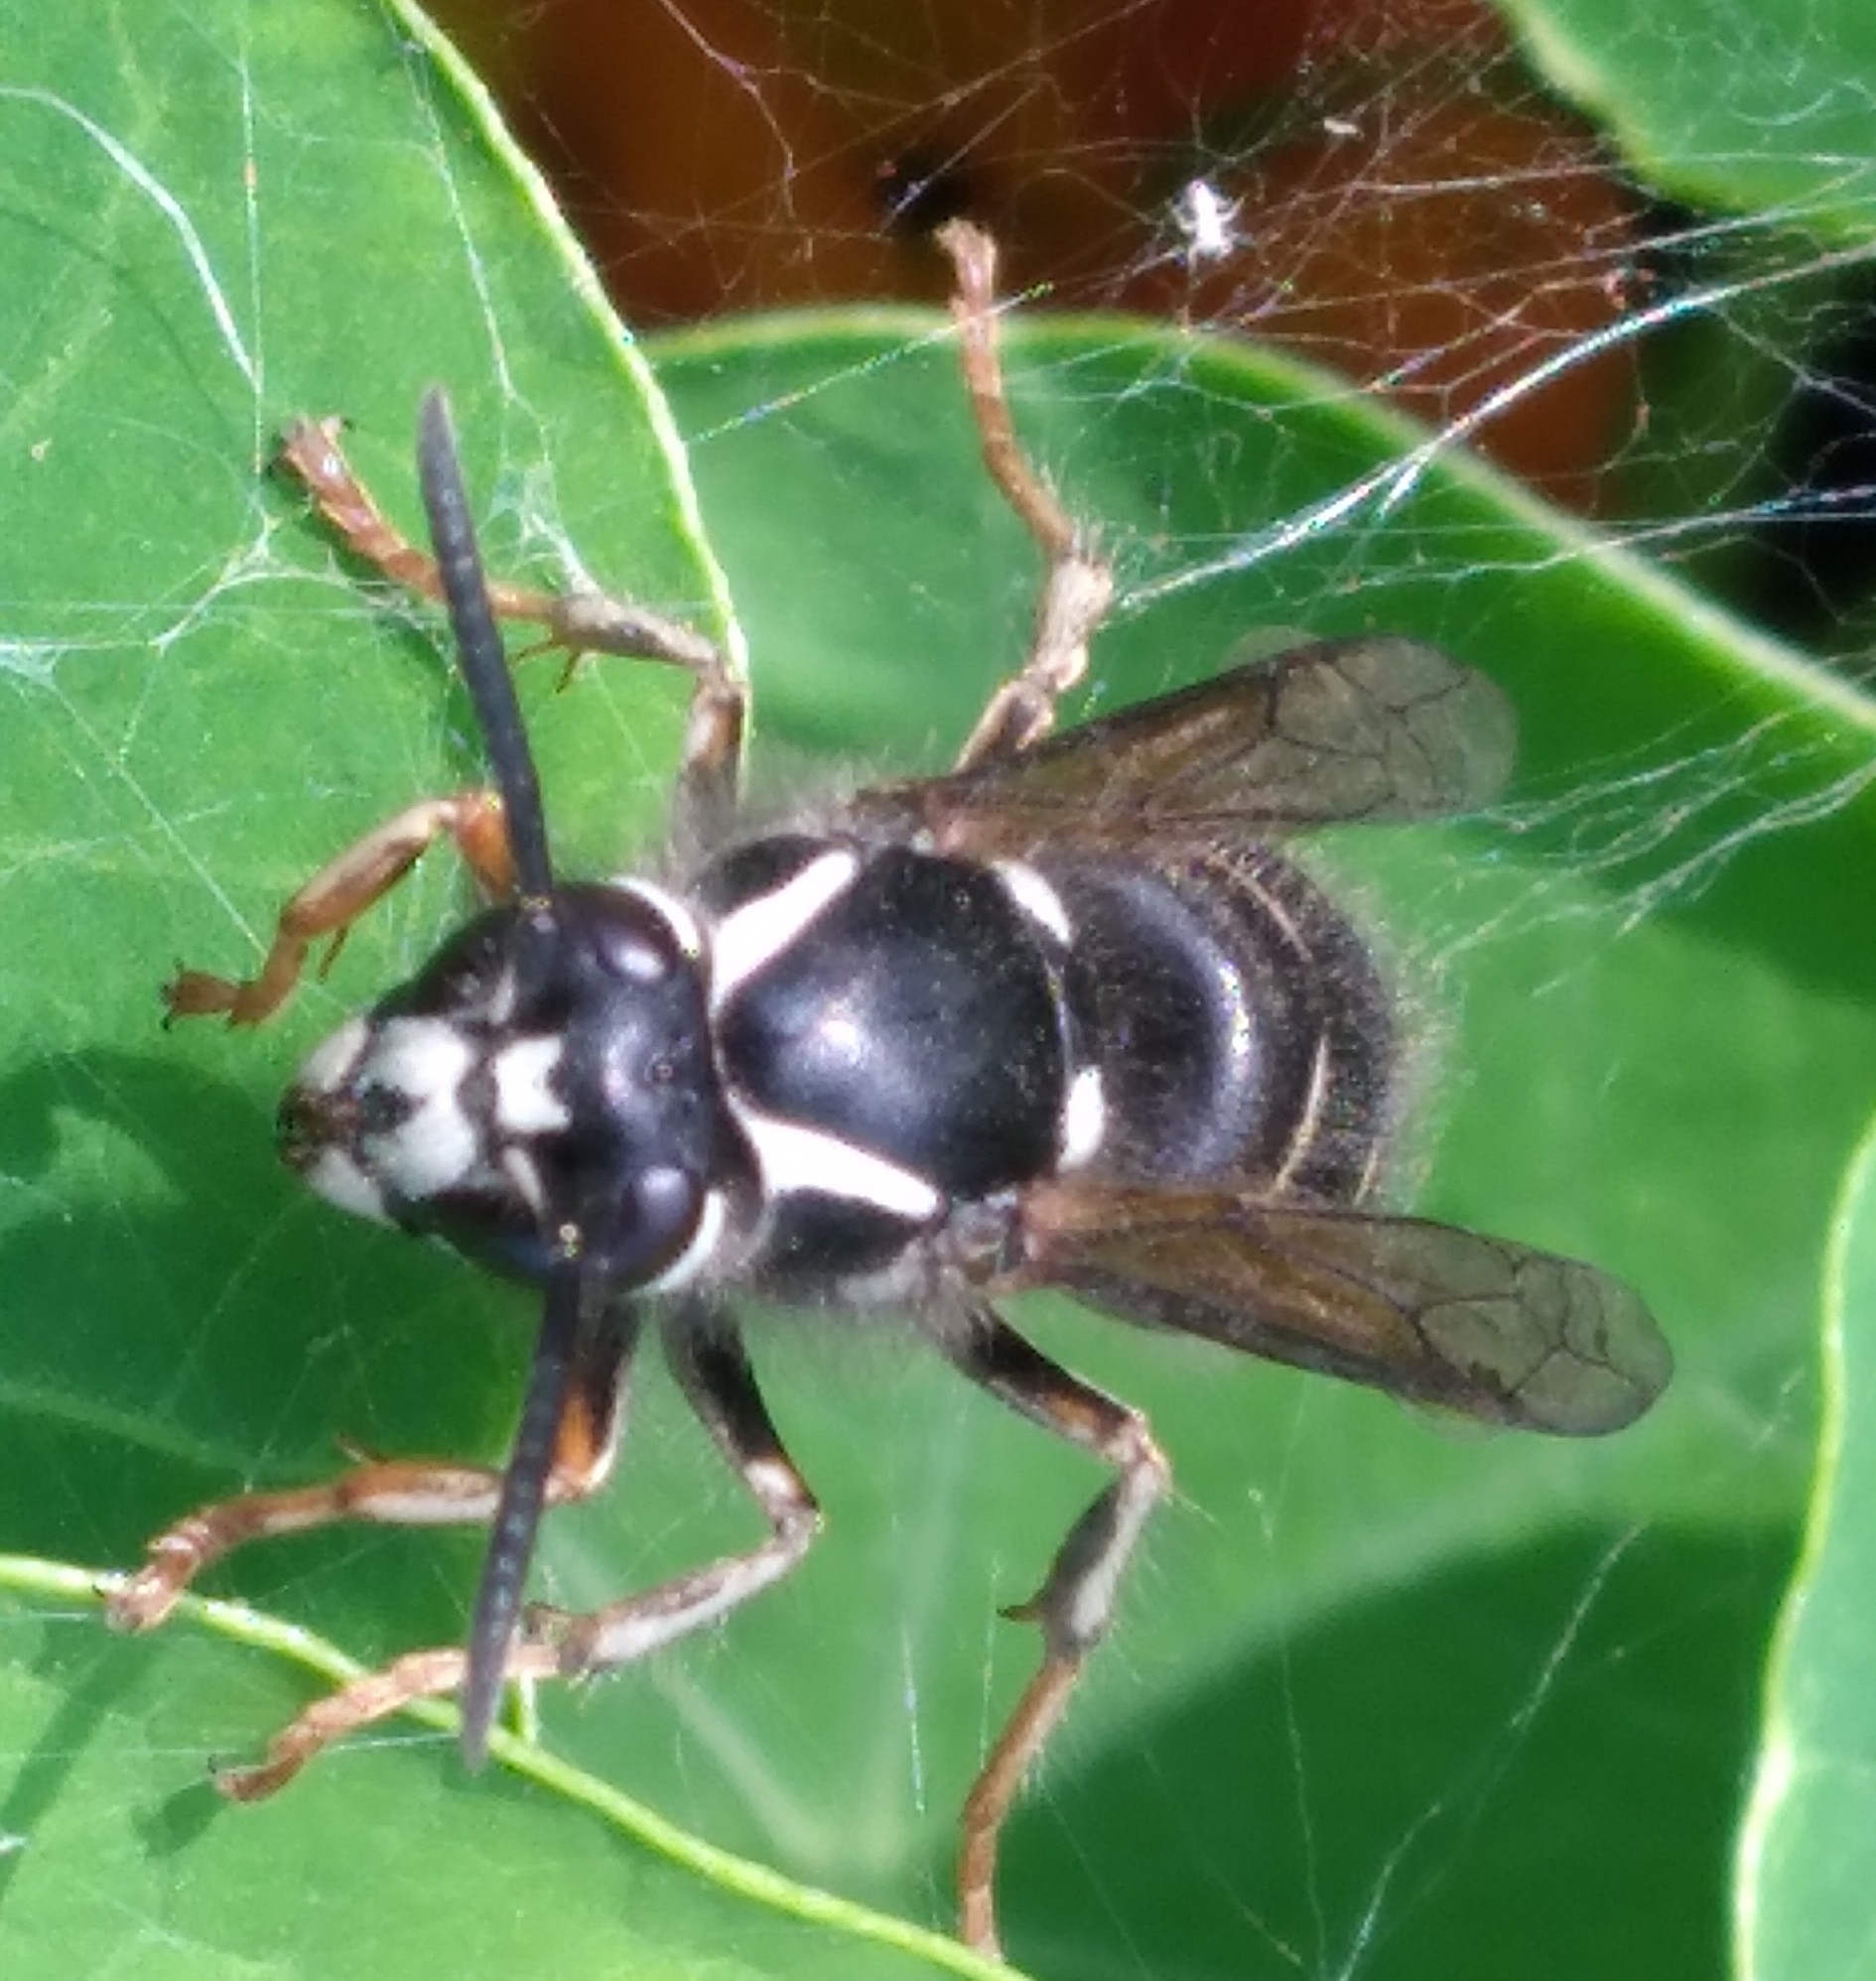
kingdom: Animalia
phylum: Arthropoda
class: Insecta
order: Hymenoptera
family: Vespidae
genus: Dolichovespula
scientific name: Dolichovespula adulterina
